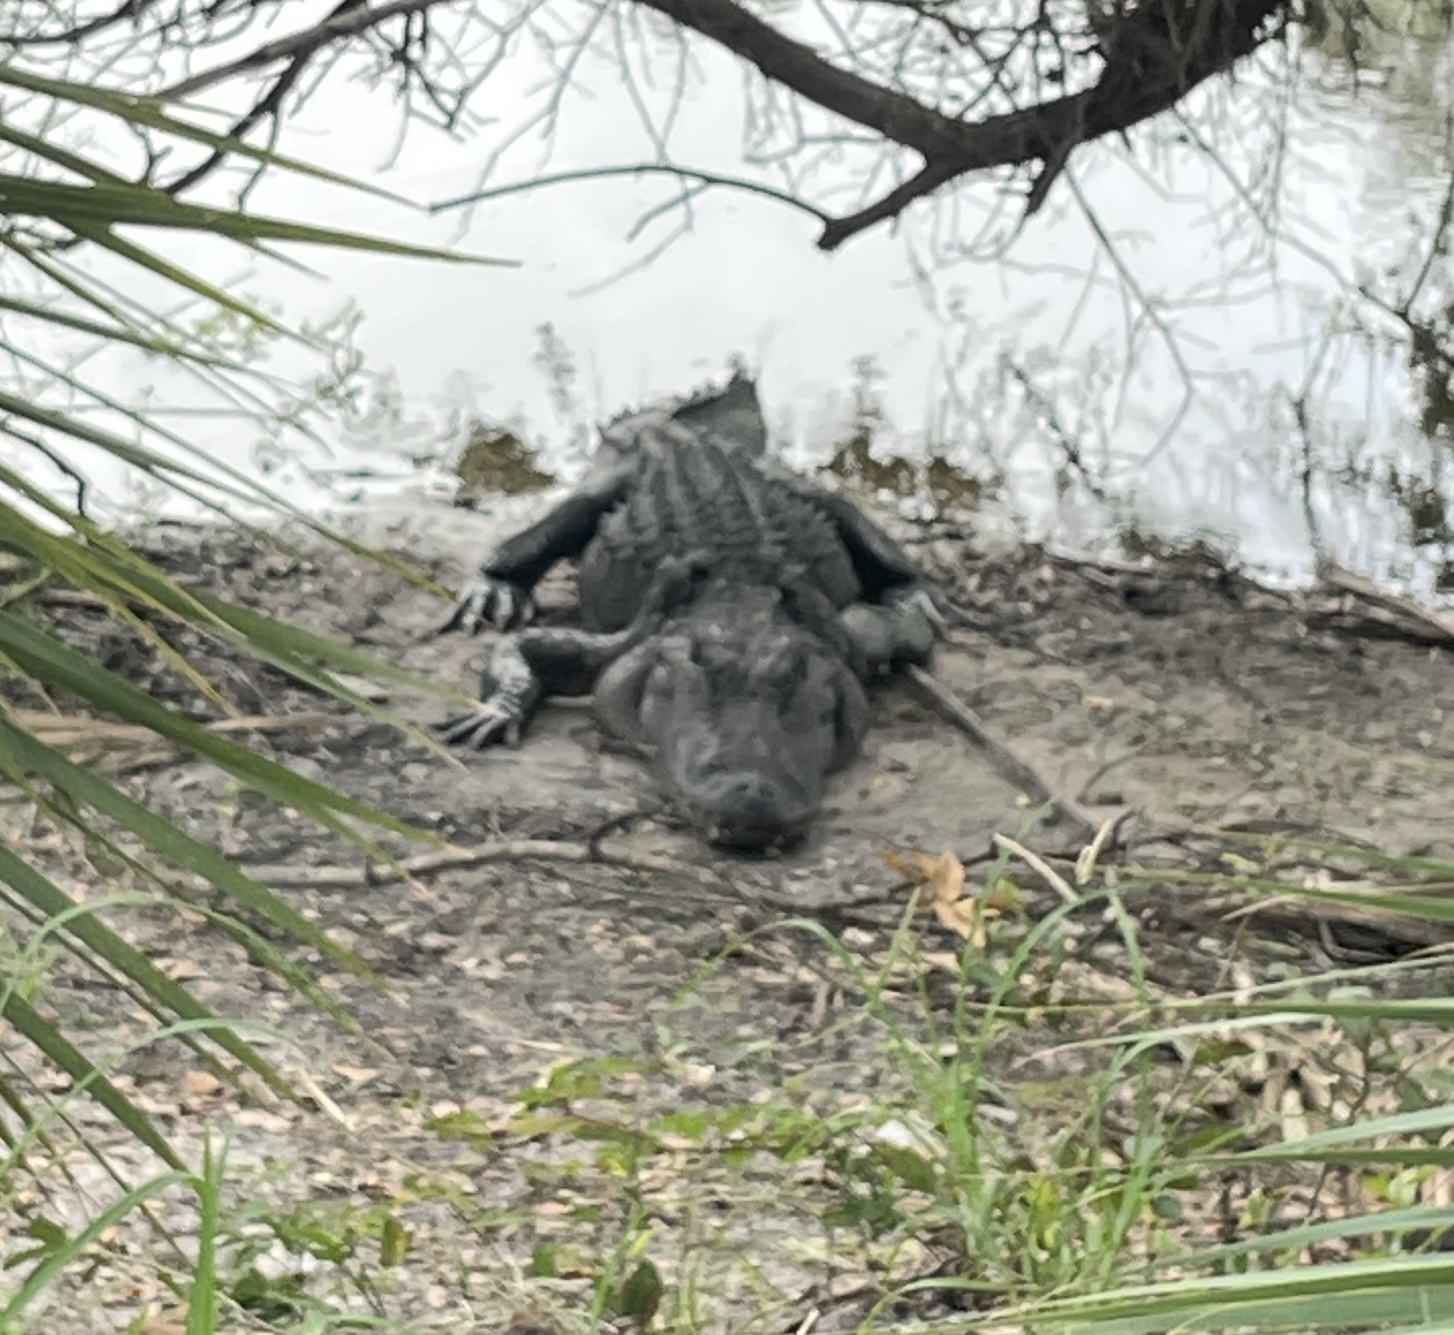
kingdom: Animalia
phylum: Chordata
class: Crocodylia
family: Alligatoridae
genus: Alligator
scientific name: Alligator mississippiensis
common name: American alligator
